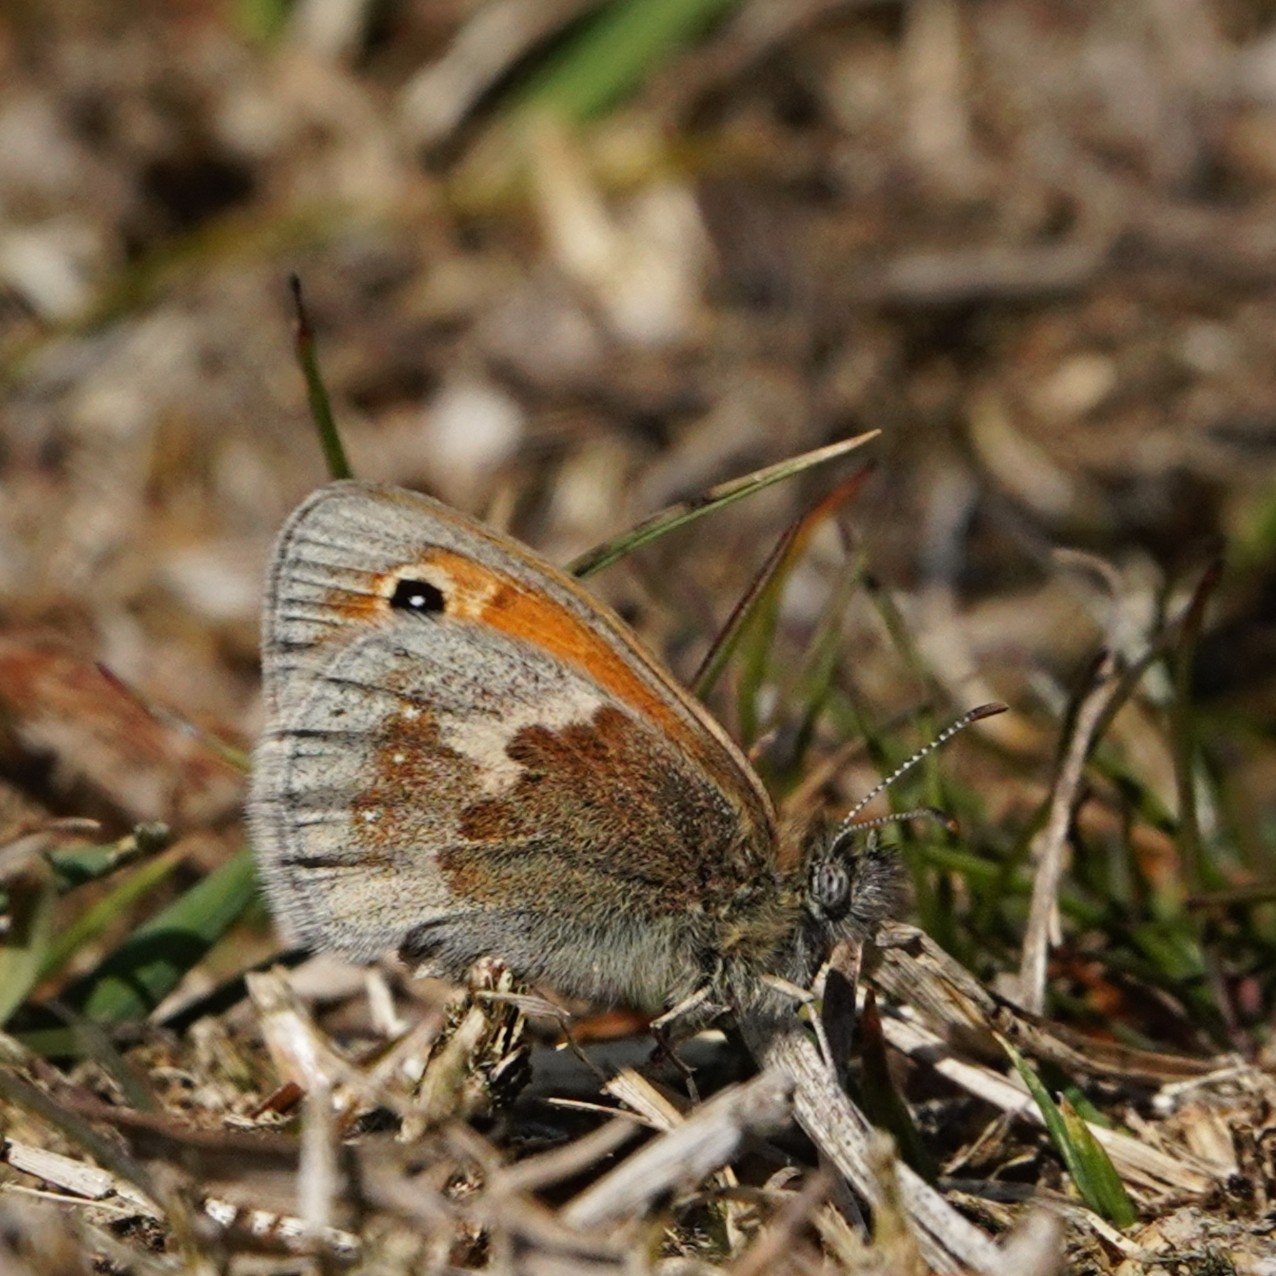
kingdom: Animalia
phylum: Arthropoda
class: Insecta
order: Lepidoptera
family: Nymphalidae
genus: Coenonympha
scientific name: Coenonympha pamphilus
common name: Small heath
